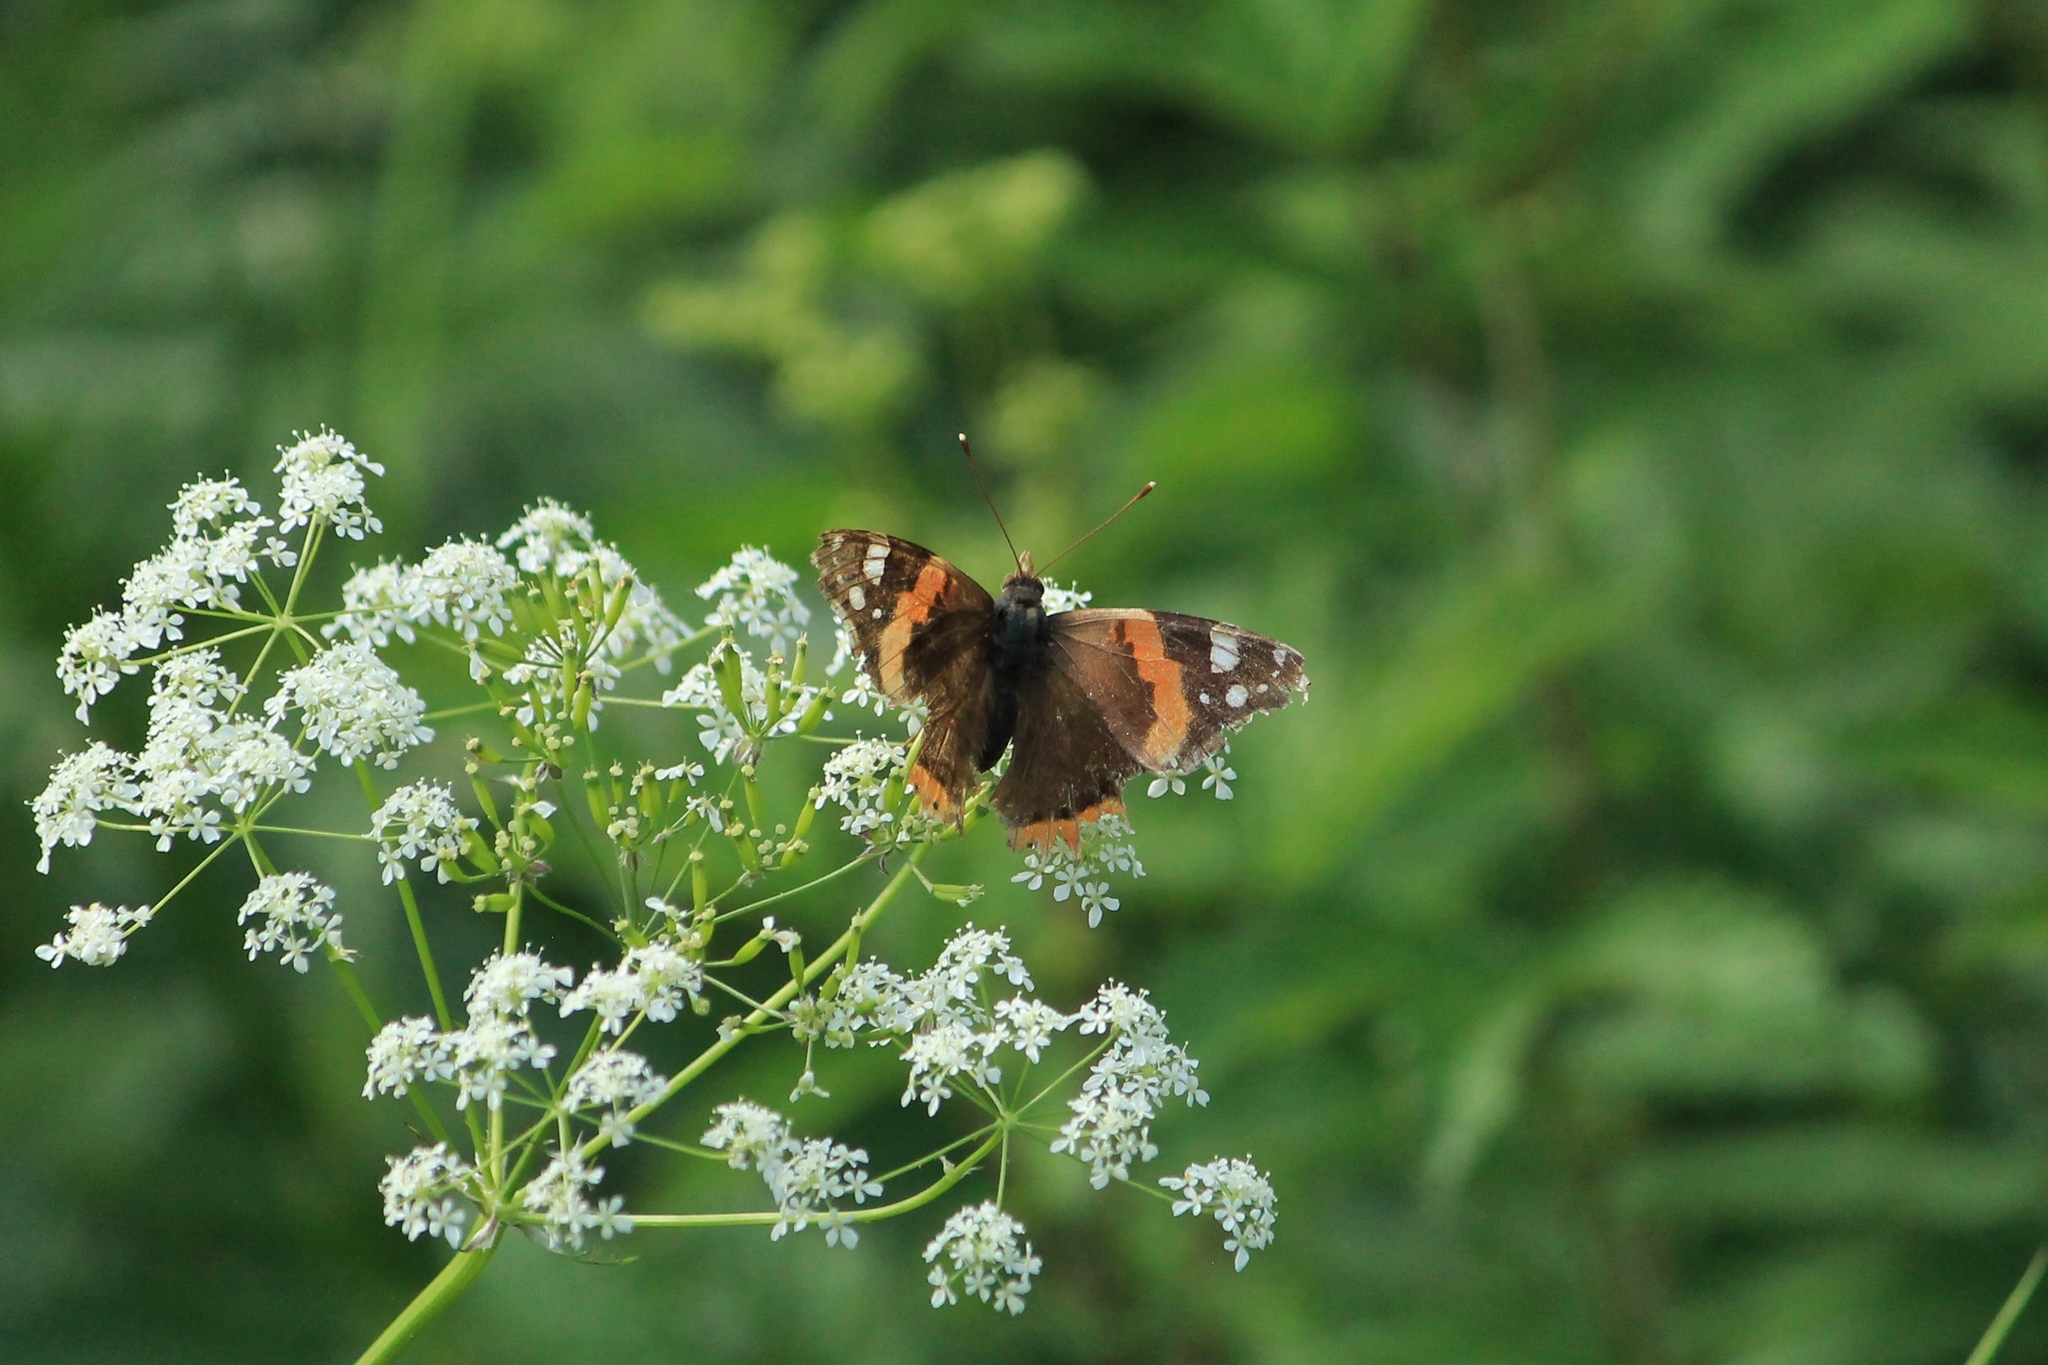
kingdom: Animalia
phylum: Arthropoda
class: Insecta
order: Lepidoptera
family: Nymphalidae
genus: Vanessa
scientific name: Vanessa atalanta
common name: Red admiral
